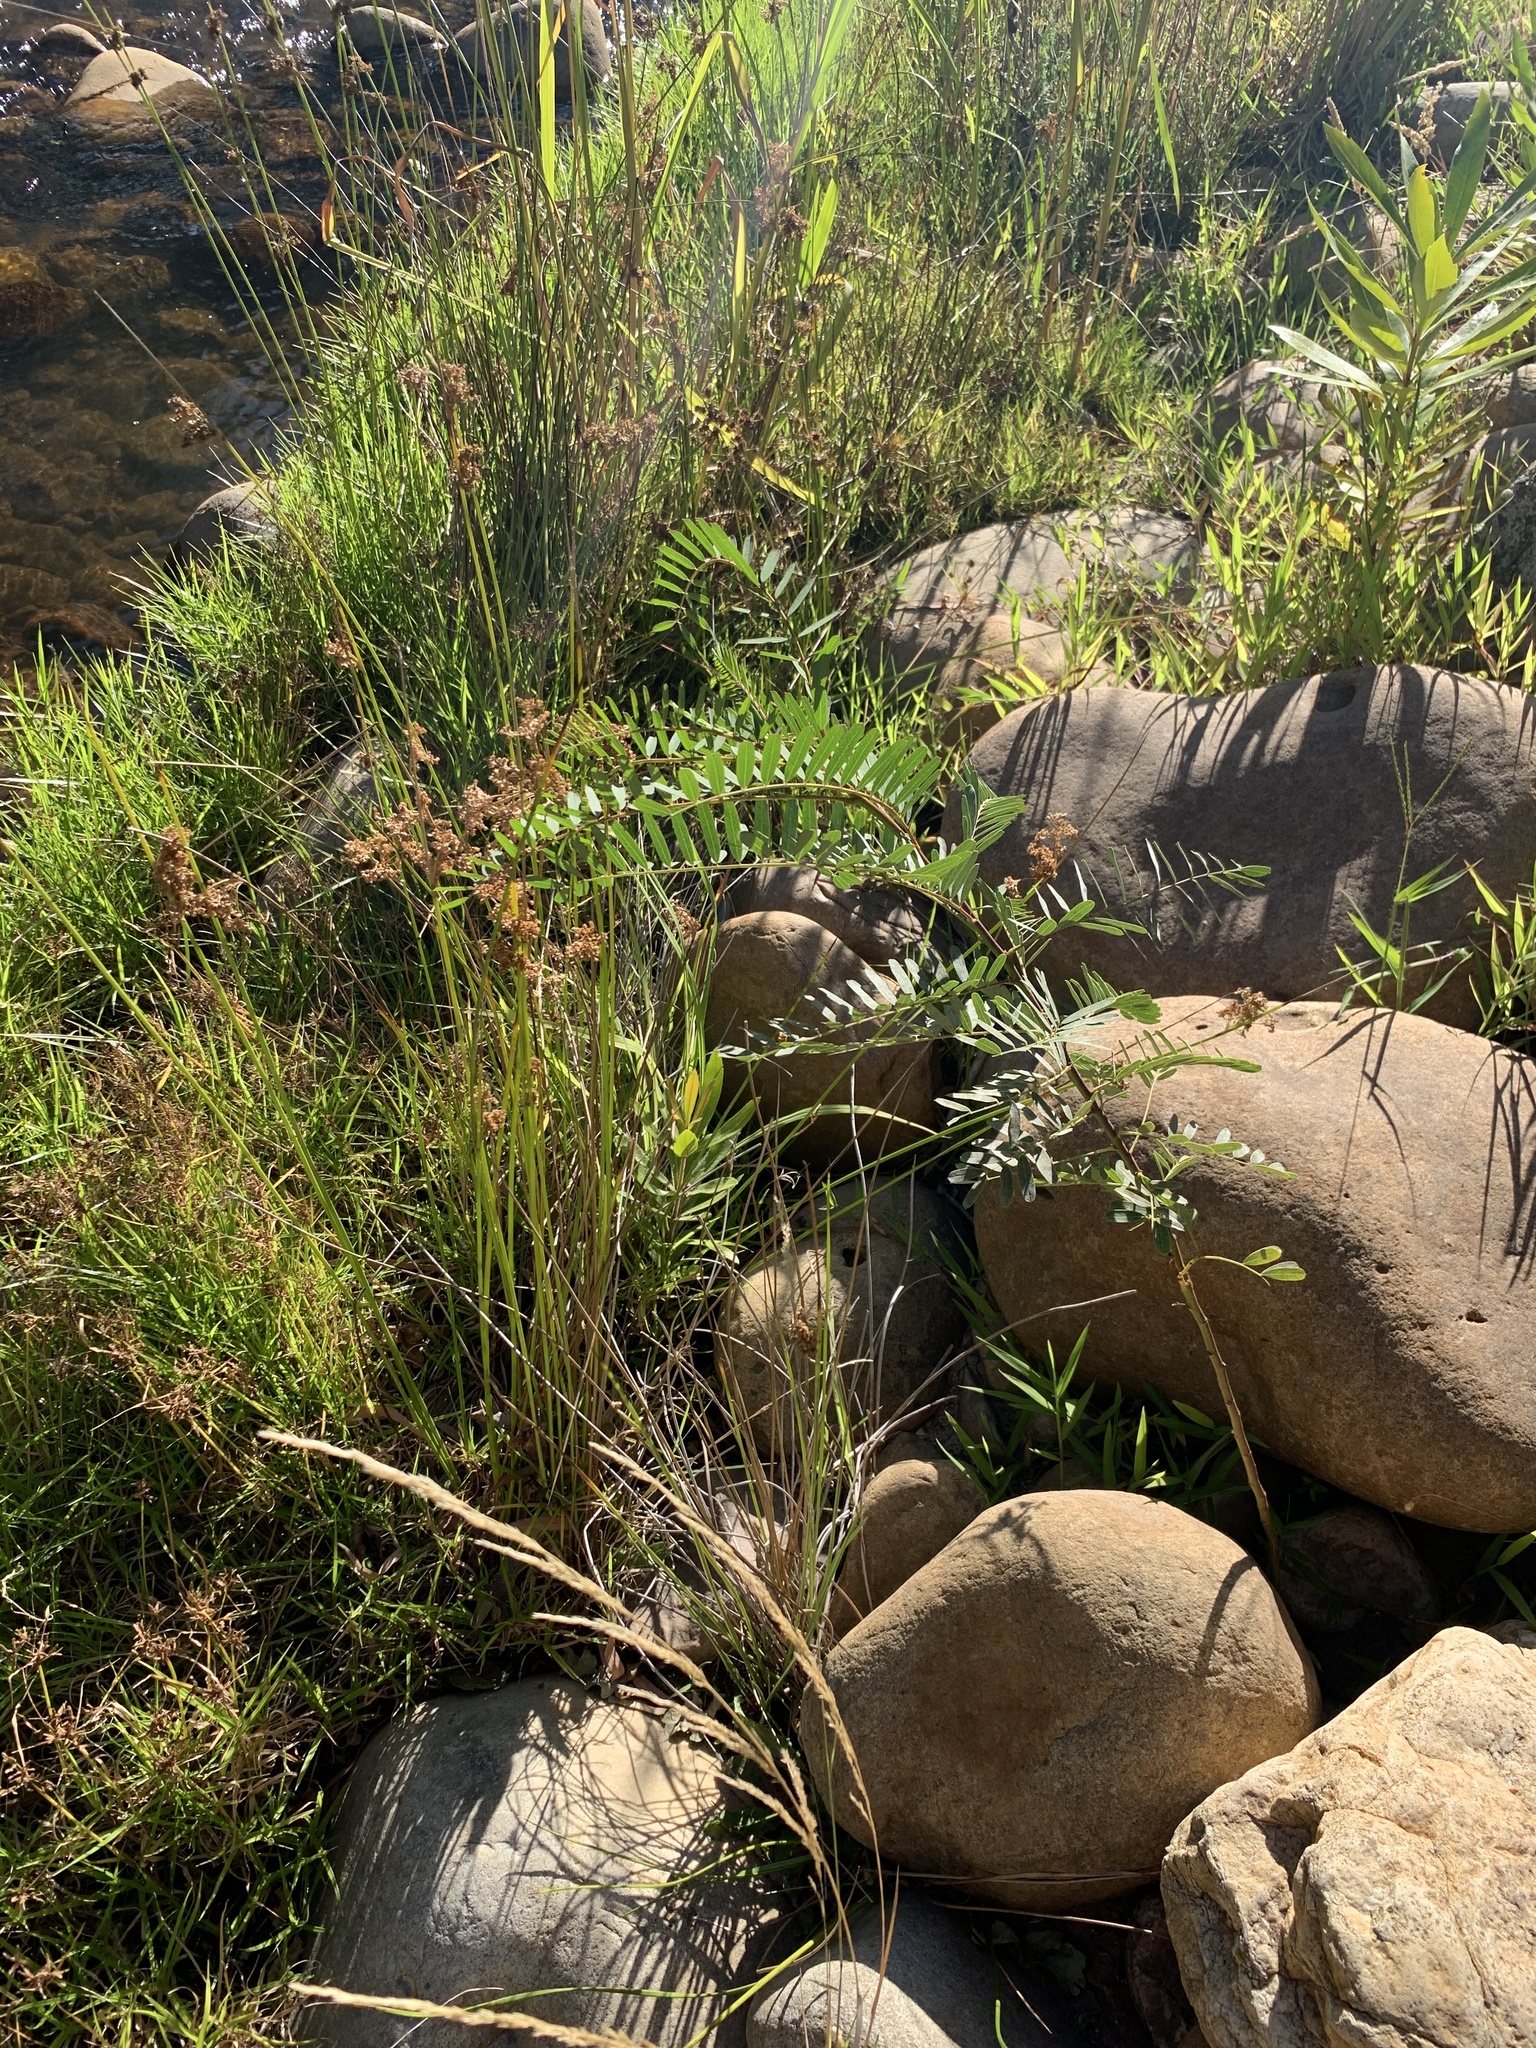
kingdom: Plantae
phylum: Tracheophyta
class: Magnoliopsida
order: Fabales
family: Fabaceae
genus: Sesbania
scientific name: Sesbania punicea
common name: Rattlebox
